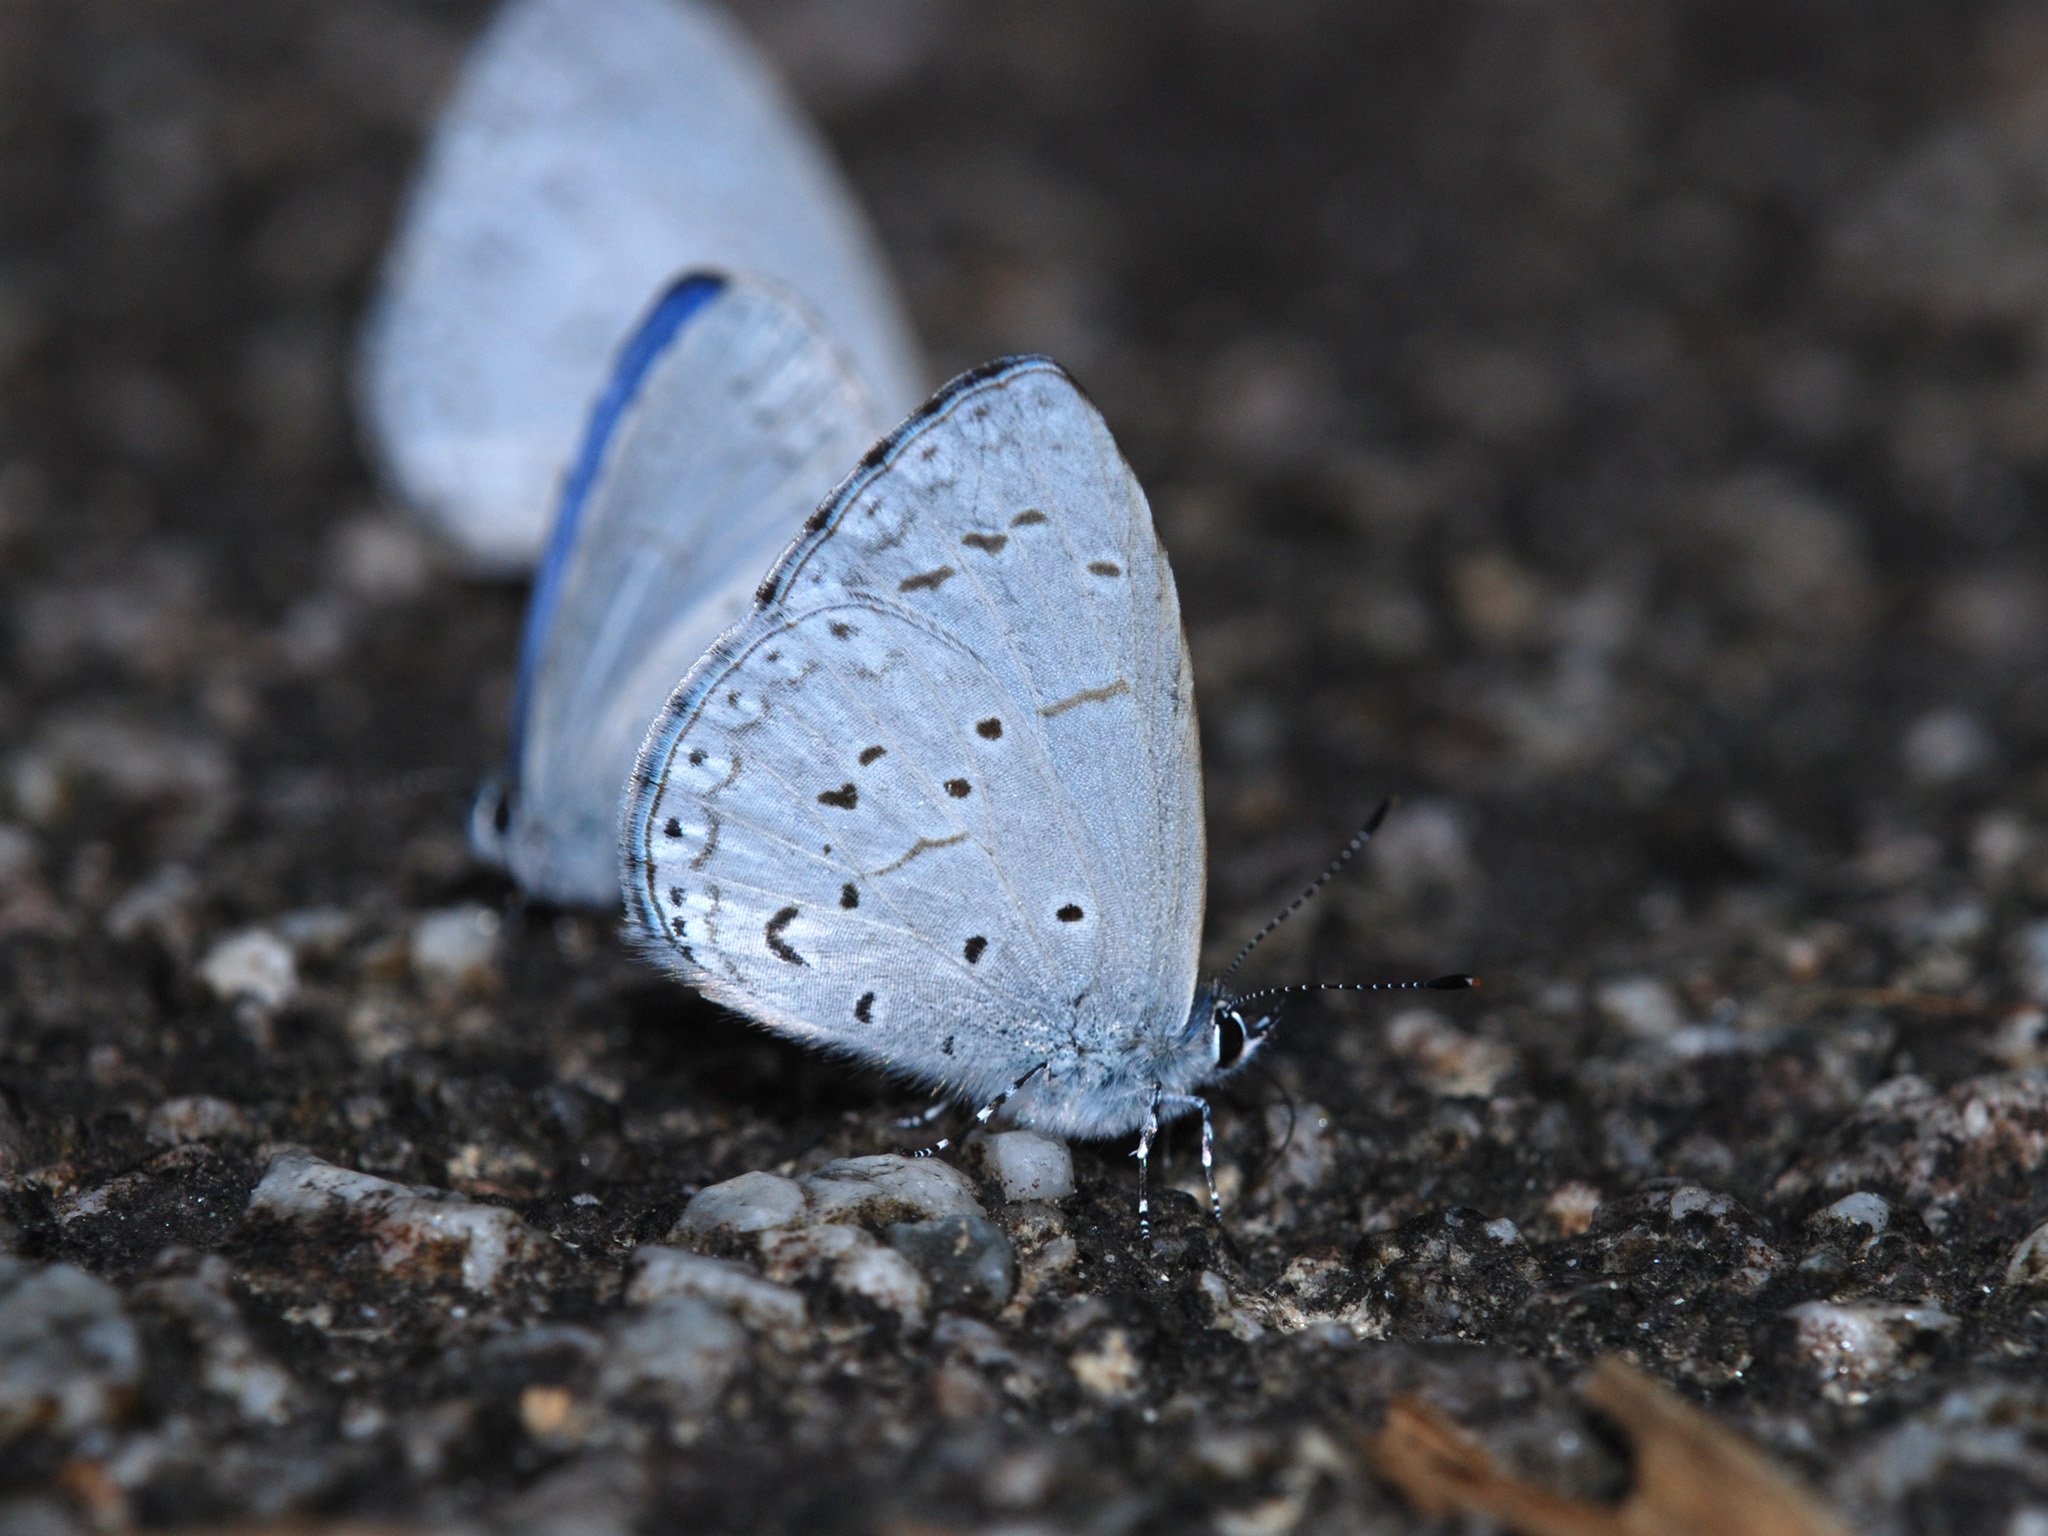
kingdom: Animalia
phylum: Arthropoda
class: Insecta
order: Lepidoptera
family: Lycaenidae
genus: Udara
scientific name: Udara dilectus
